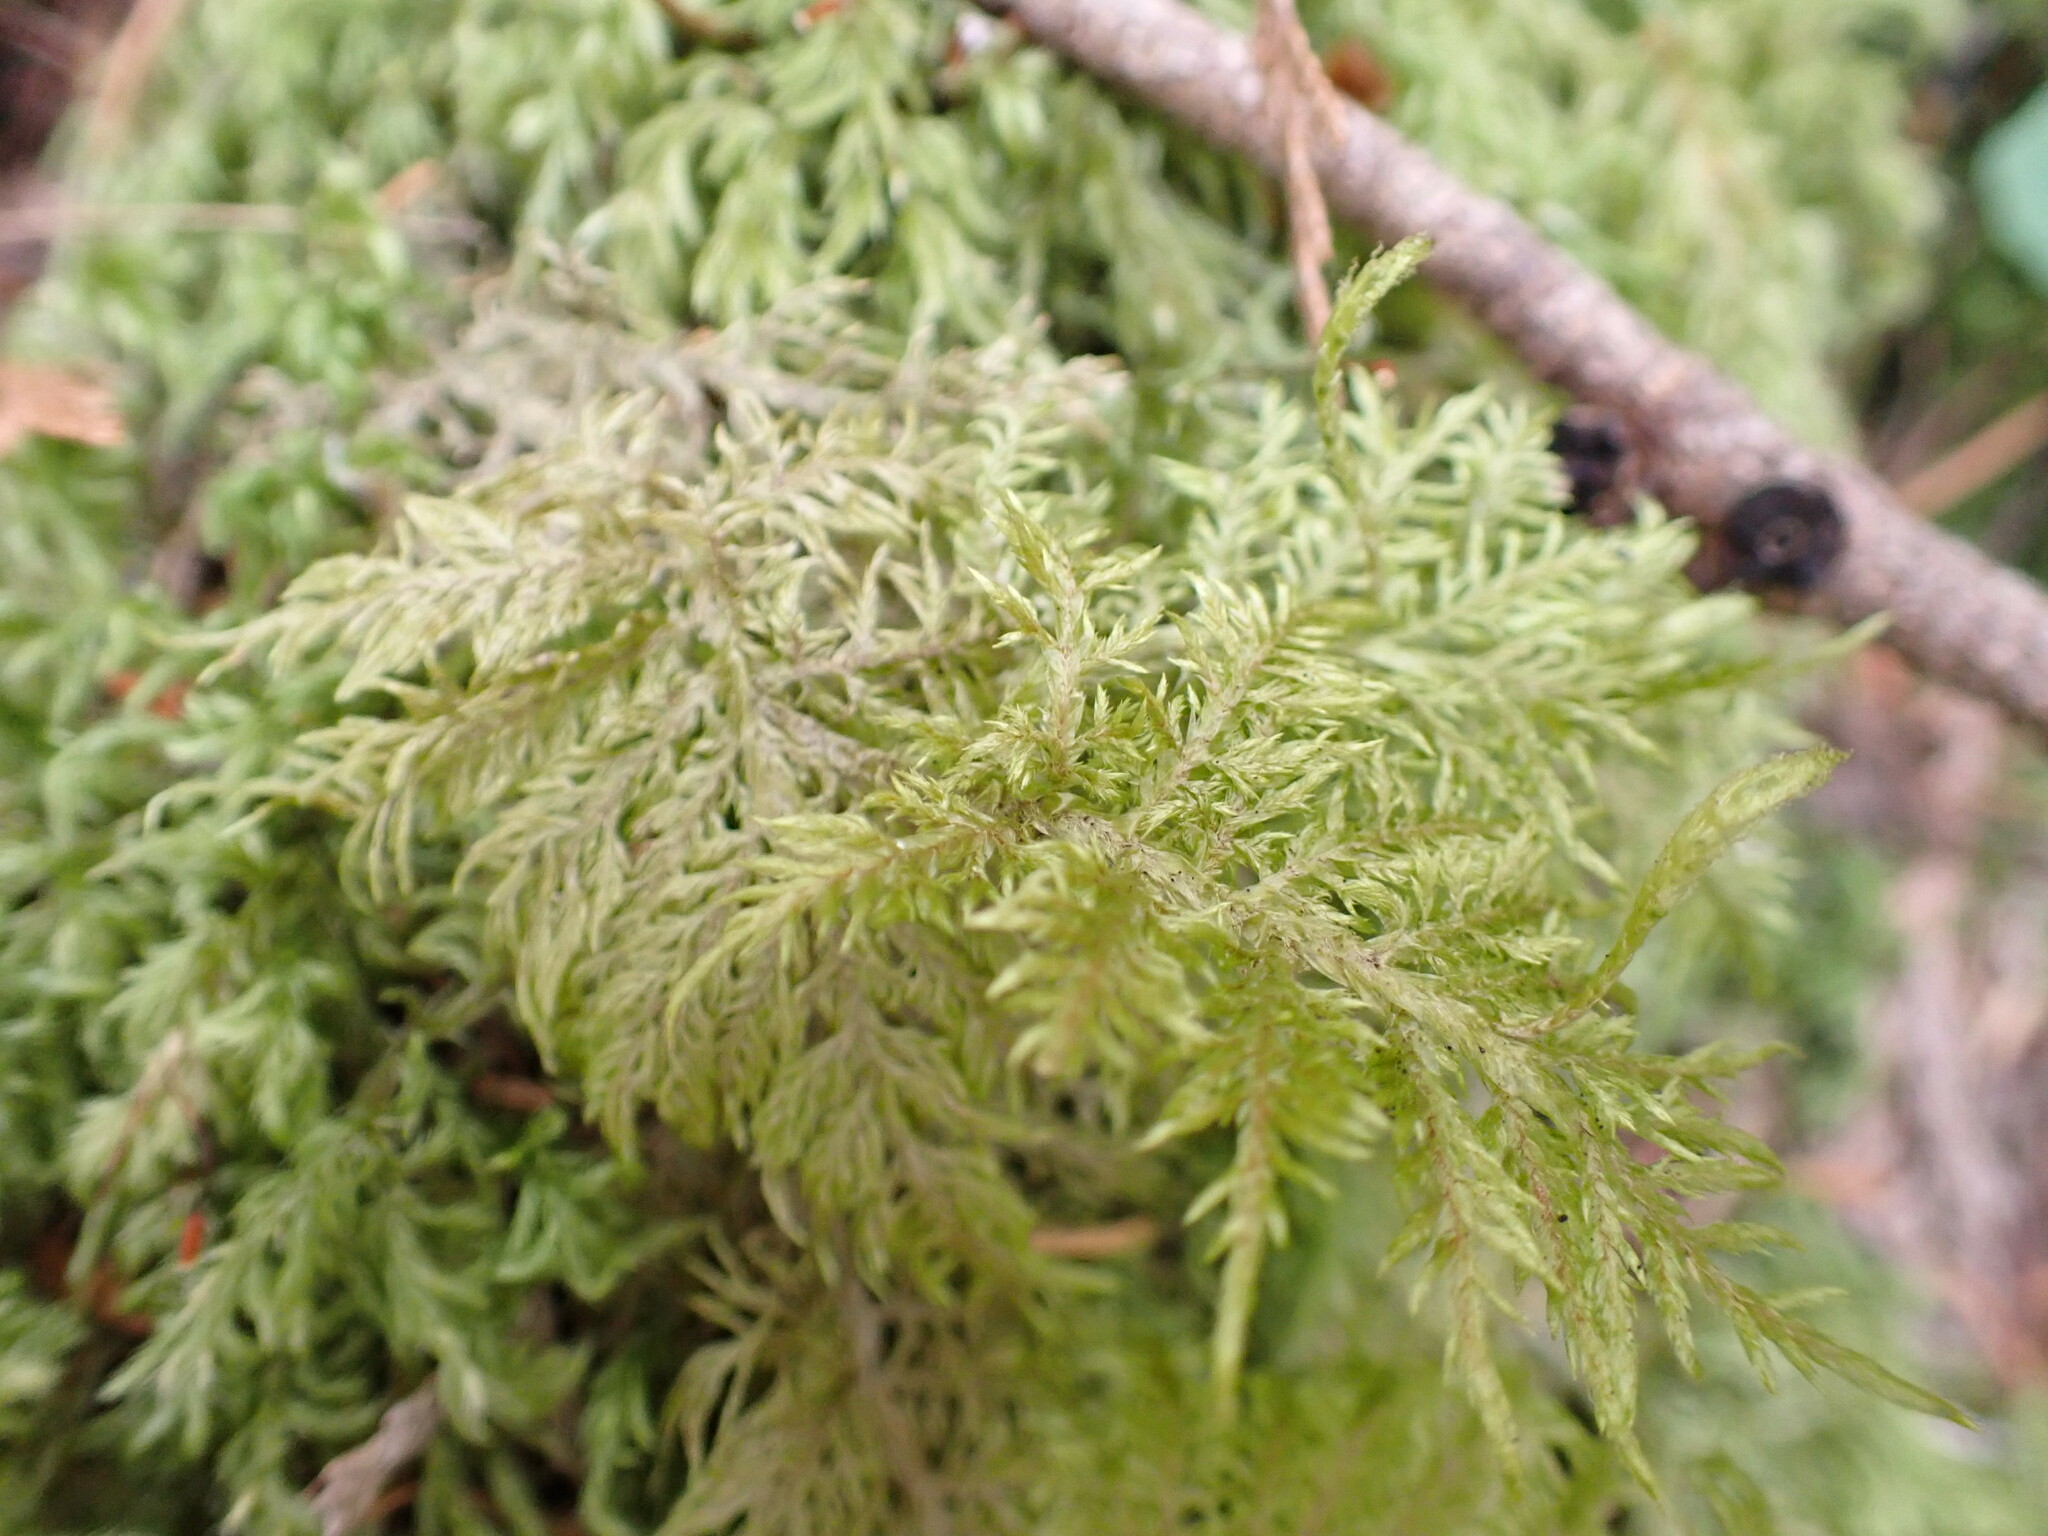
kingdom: Plantae
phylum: Bryophyta
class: Bryopsida
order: Hypnales
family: Hylocomiaceae
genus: Hylocomium
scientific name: Hylocomium splendens
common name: Stairstep moss
